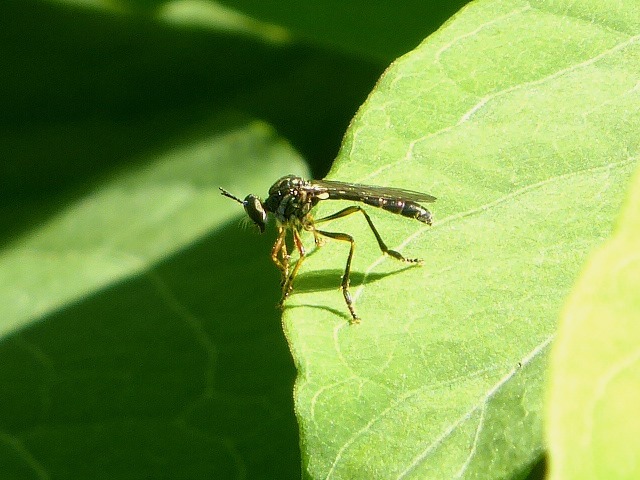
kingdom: Animalia
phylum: Arthropoda
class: Insecta
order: Diptera
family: Asilidae
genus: Dioctria
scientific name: Dioctria hyalipennis
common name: Stripe-legged robberfly
